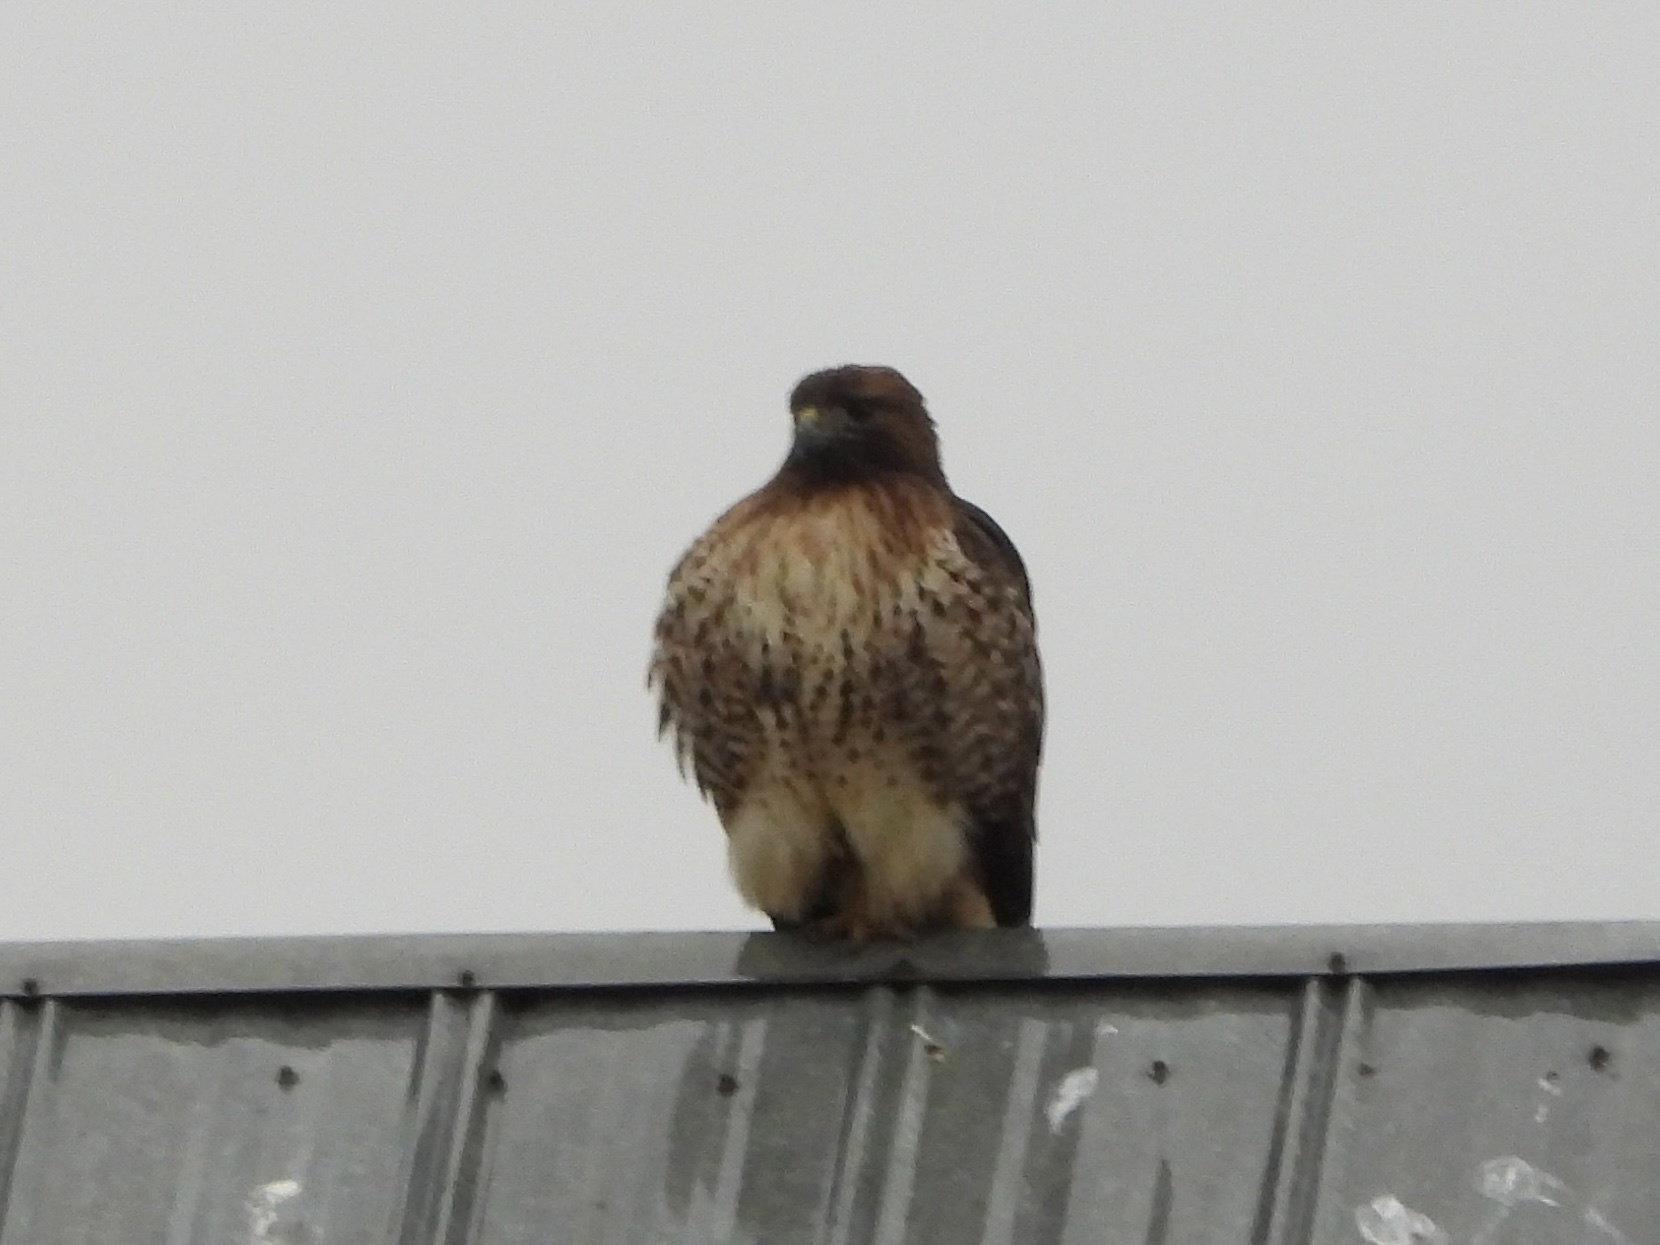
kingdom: Animalia
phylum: Chordata
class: Aves
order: Accipitriformes
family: Accipitridae
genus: Buteo
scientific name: Buteo jamaicensis
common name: Red-tailed hawk
